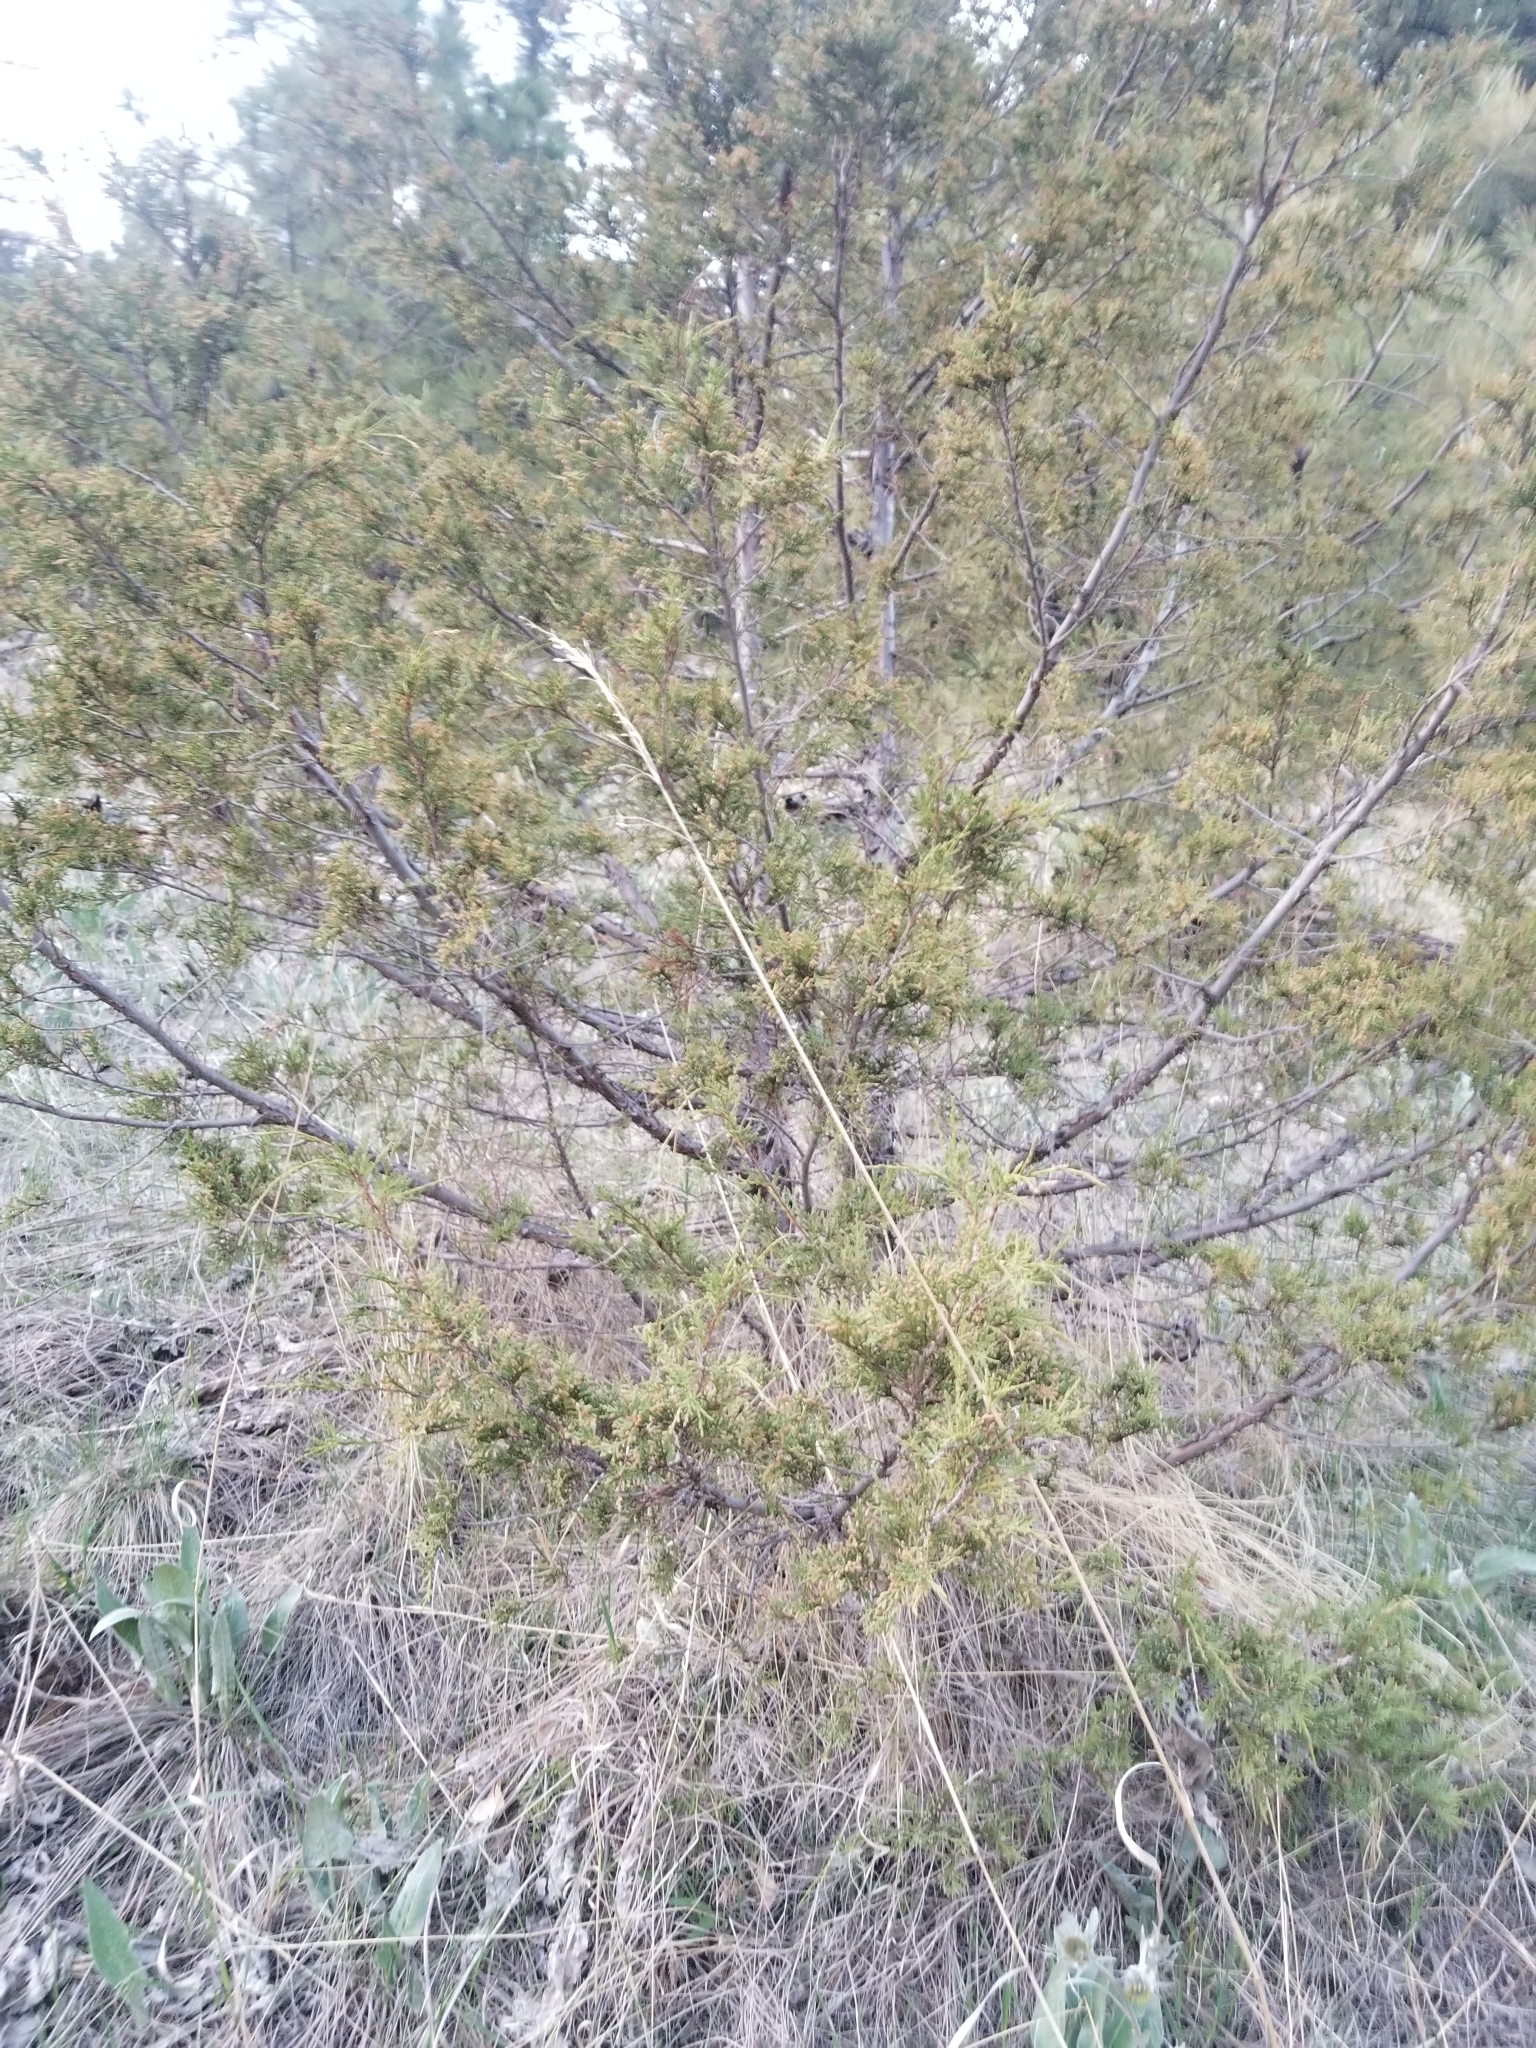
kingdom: Plantae
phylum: Tracheophyta
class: Pinopsida
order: Pinales
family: Cupressaceae
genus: Juniperus
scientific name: Juniperus scopulorum
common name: Rocky mountain juniper
